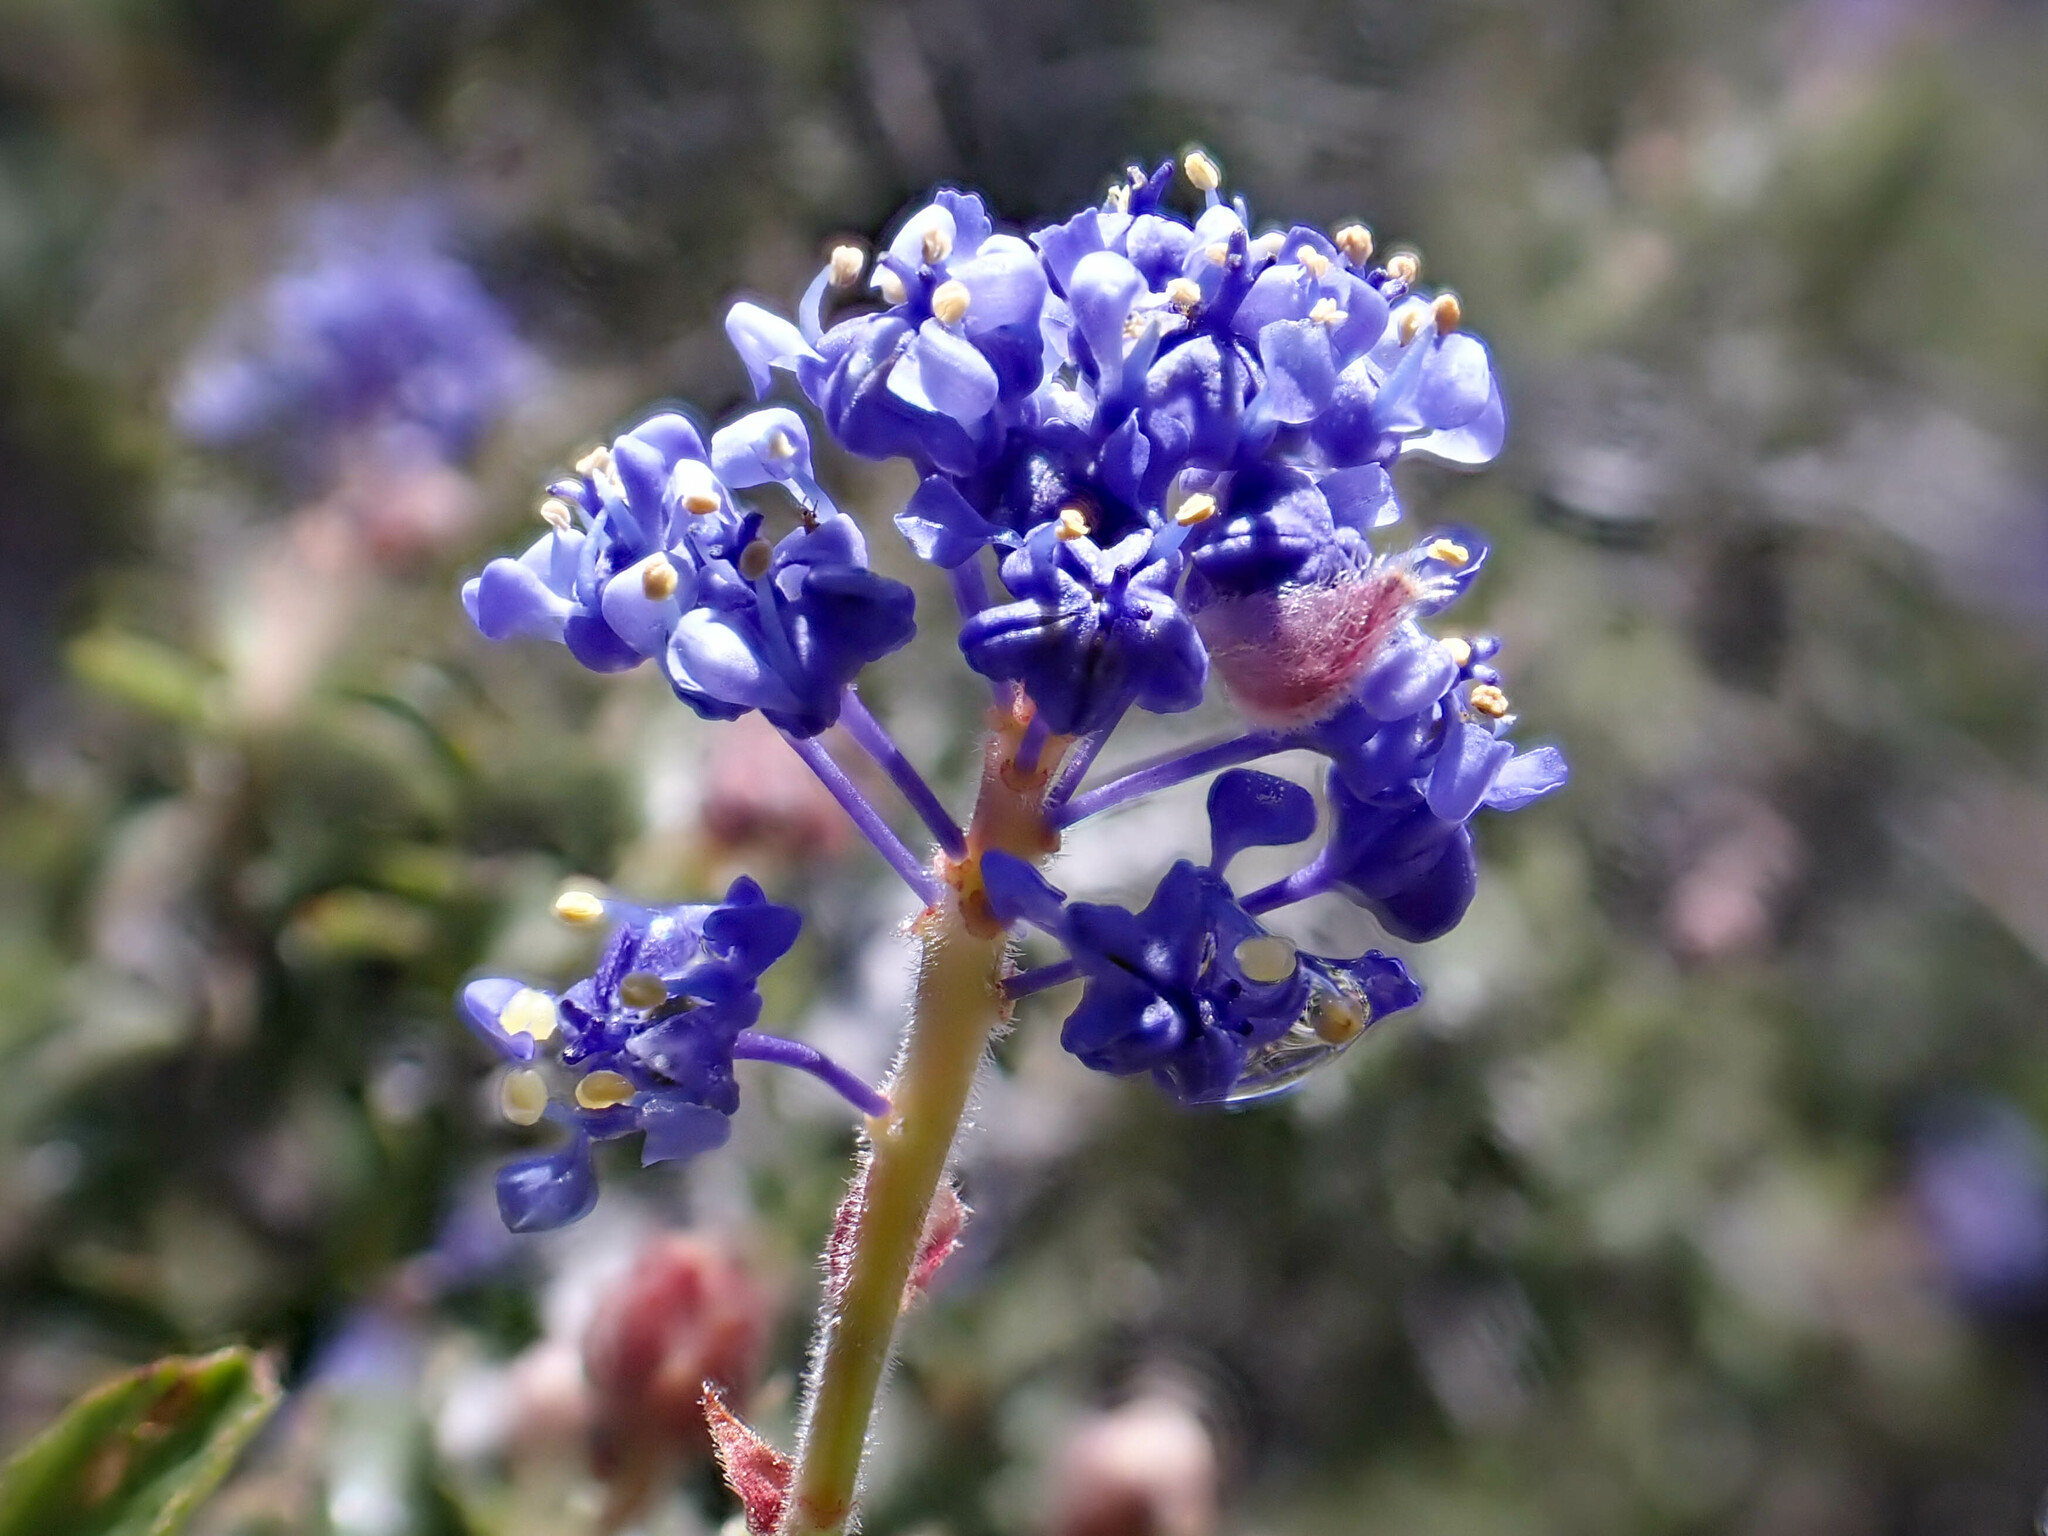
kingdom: Plantae
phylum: Tracheophyta
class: Magnoliopsida
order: Rosales
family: Rhamnaceae
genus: Ceanothus
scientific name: Ceanothus foliosus
